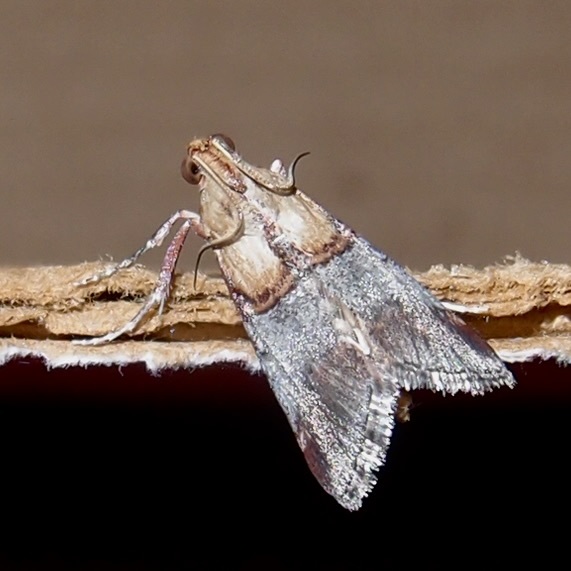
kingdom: Animalia
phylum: Arthropoda
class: Insecta
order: Lepidoptera
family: Pyralidae
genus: Cacozelia
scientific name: Cacozelia basiochrealis
